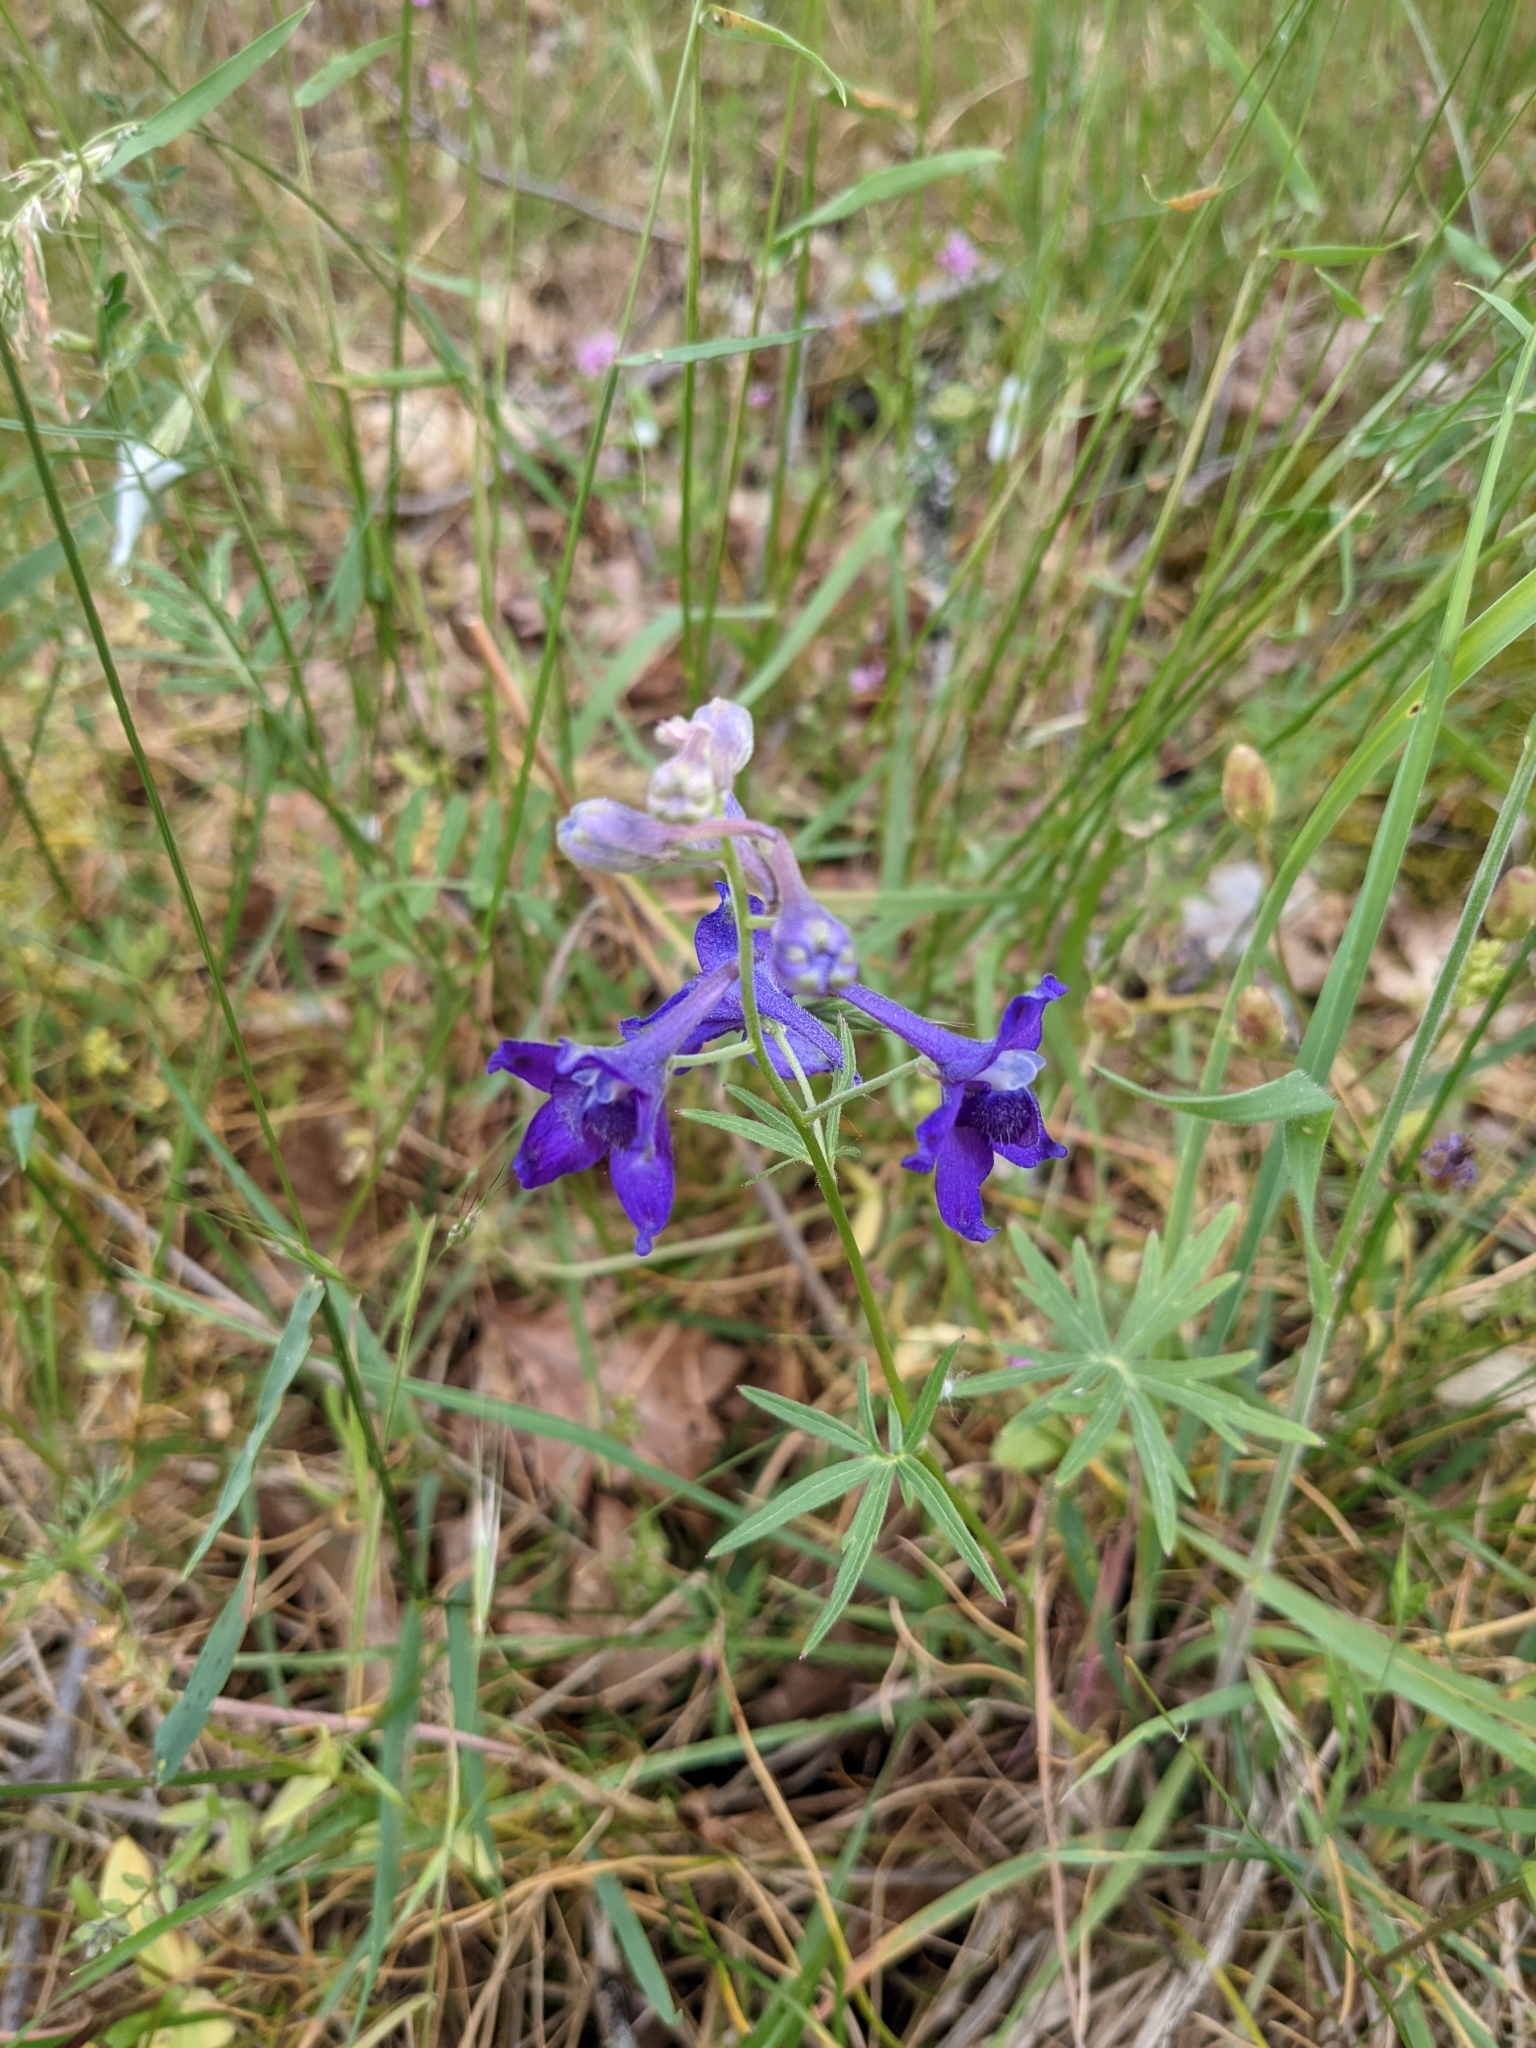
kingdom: Plantae
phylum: Tracheophyta
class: Magnoliopsida
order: Ranunculales
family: Ranunculaceae
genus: Delphinium
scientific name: Delphinium menziesii
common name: Menzies's larkspur
